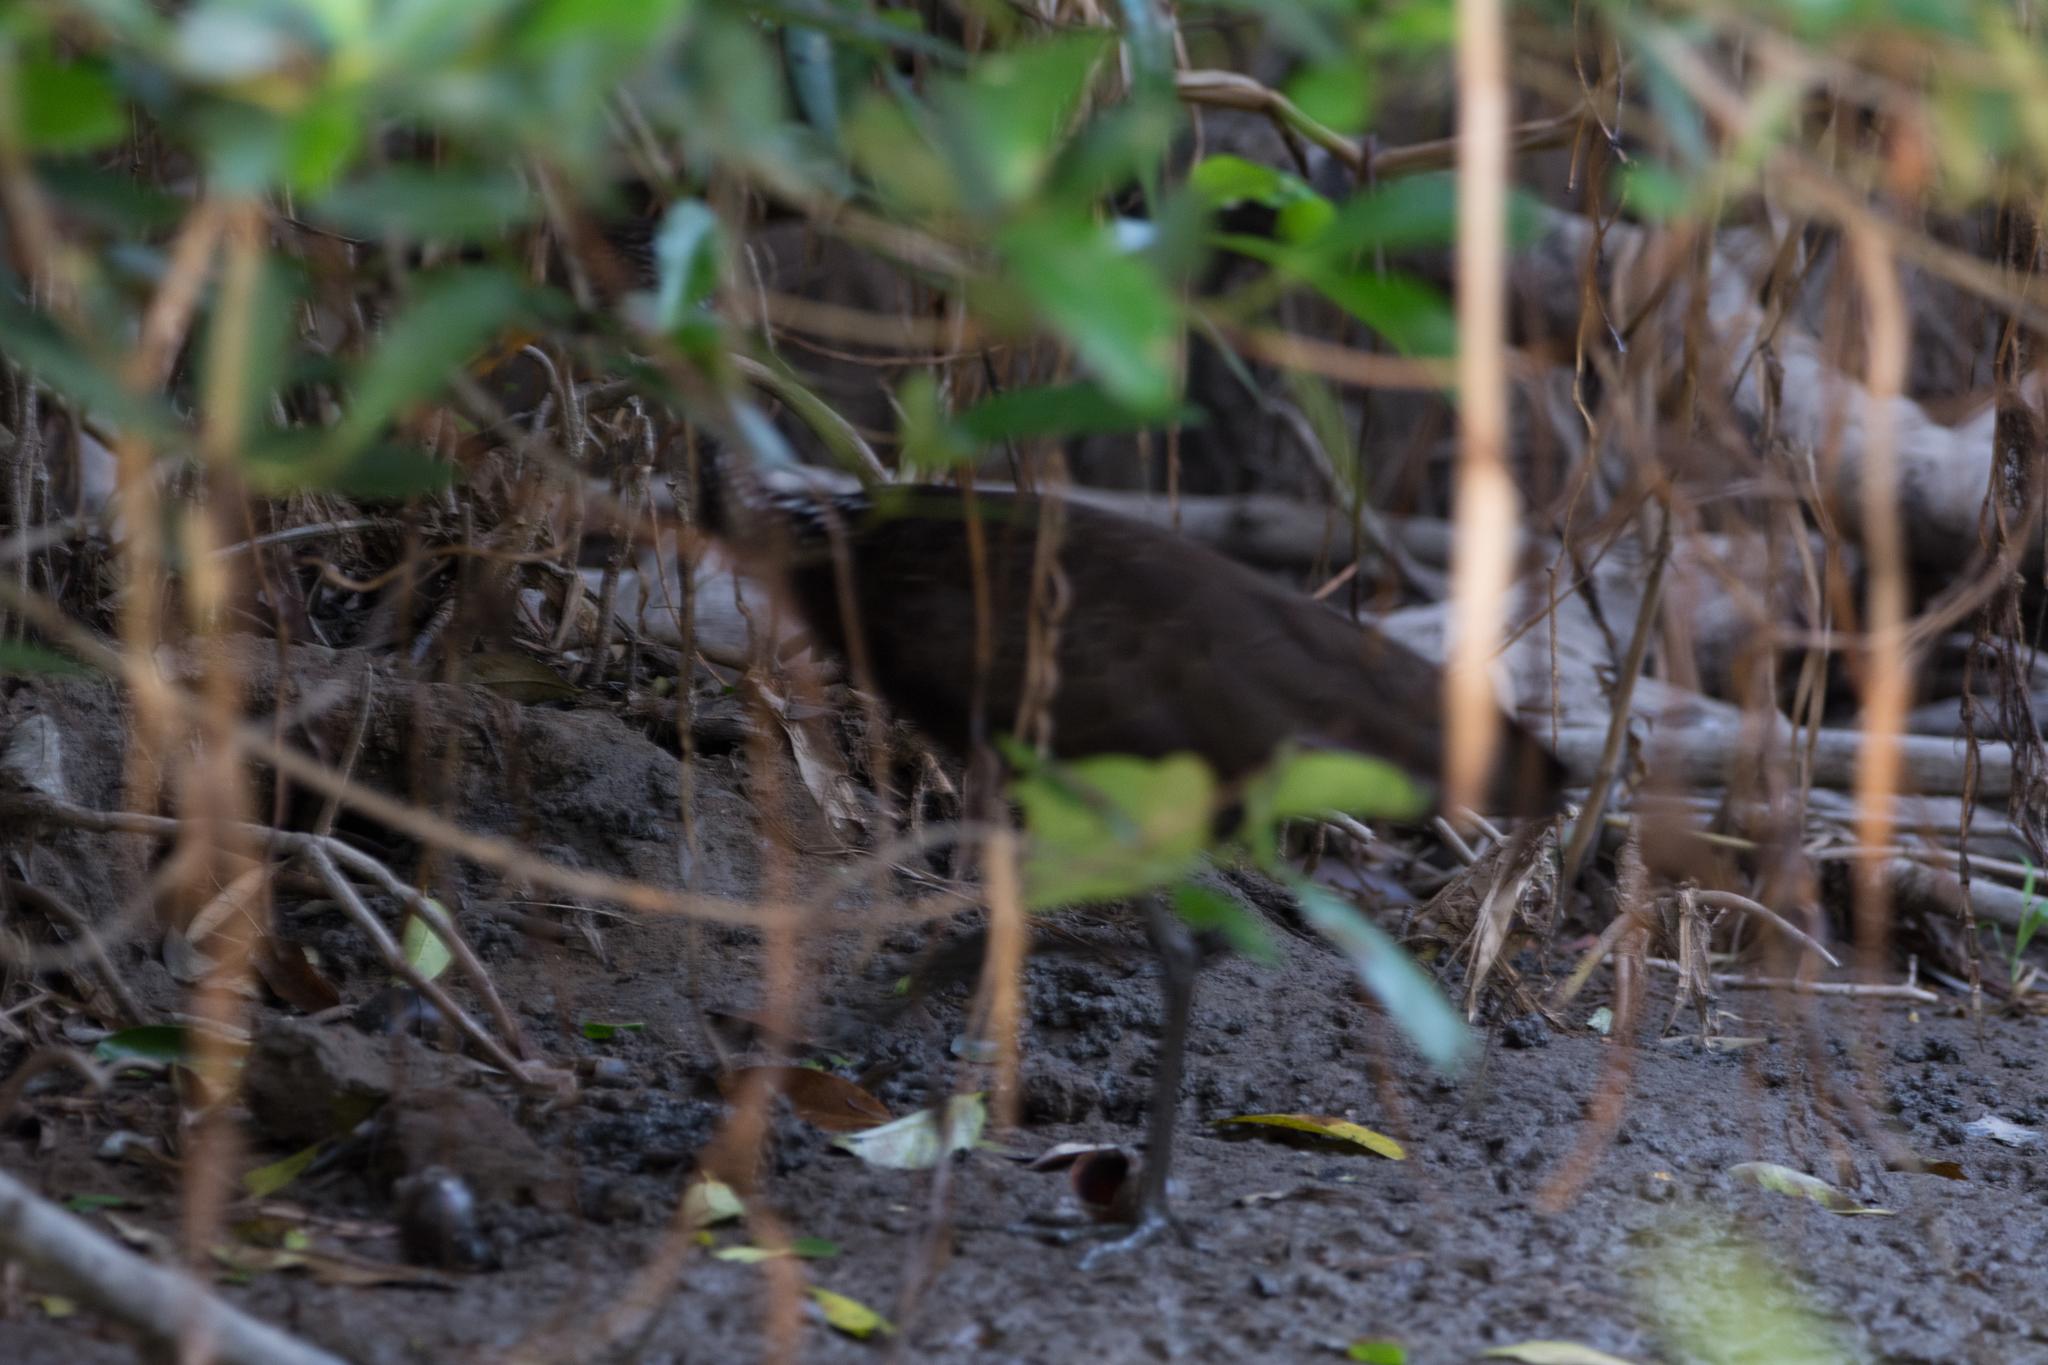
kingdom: Animalia
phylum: Chordata
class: Aves
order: Gruiformes
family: Aramidae
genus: Aramus
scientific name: Aramus guarauna
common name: Limpkin
